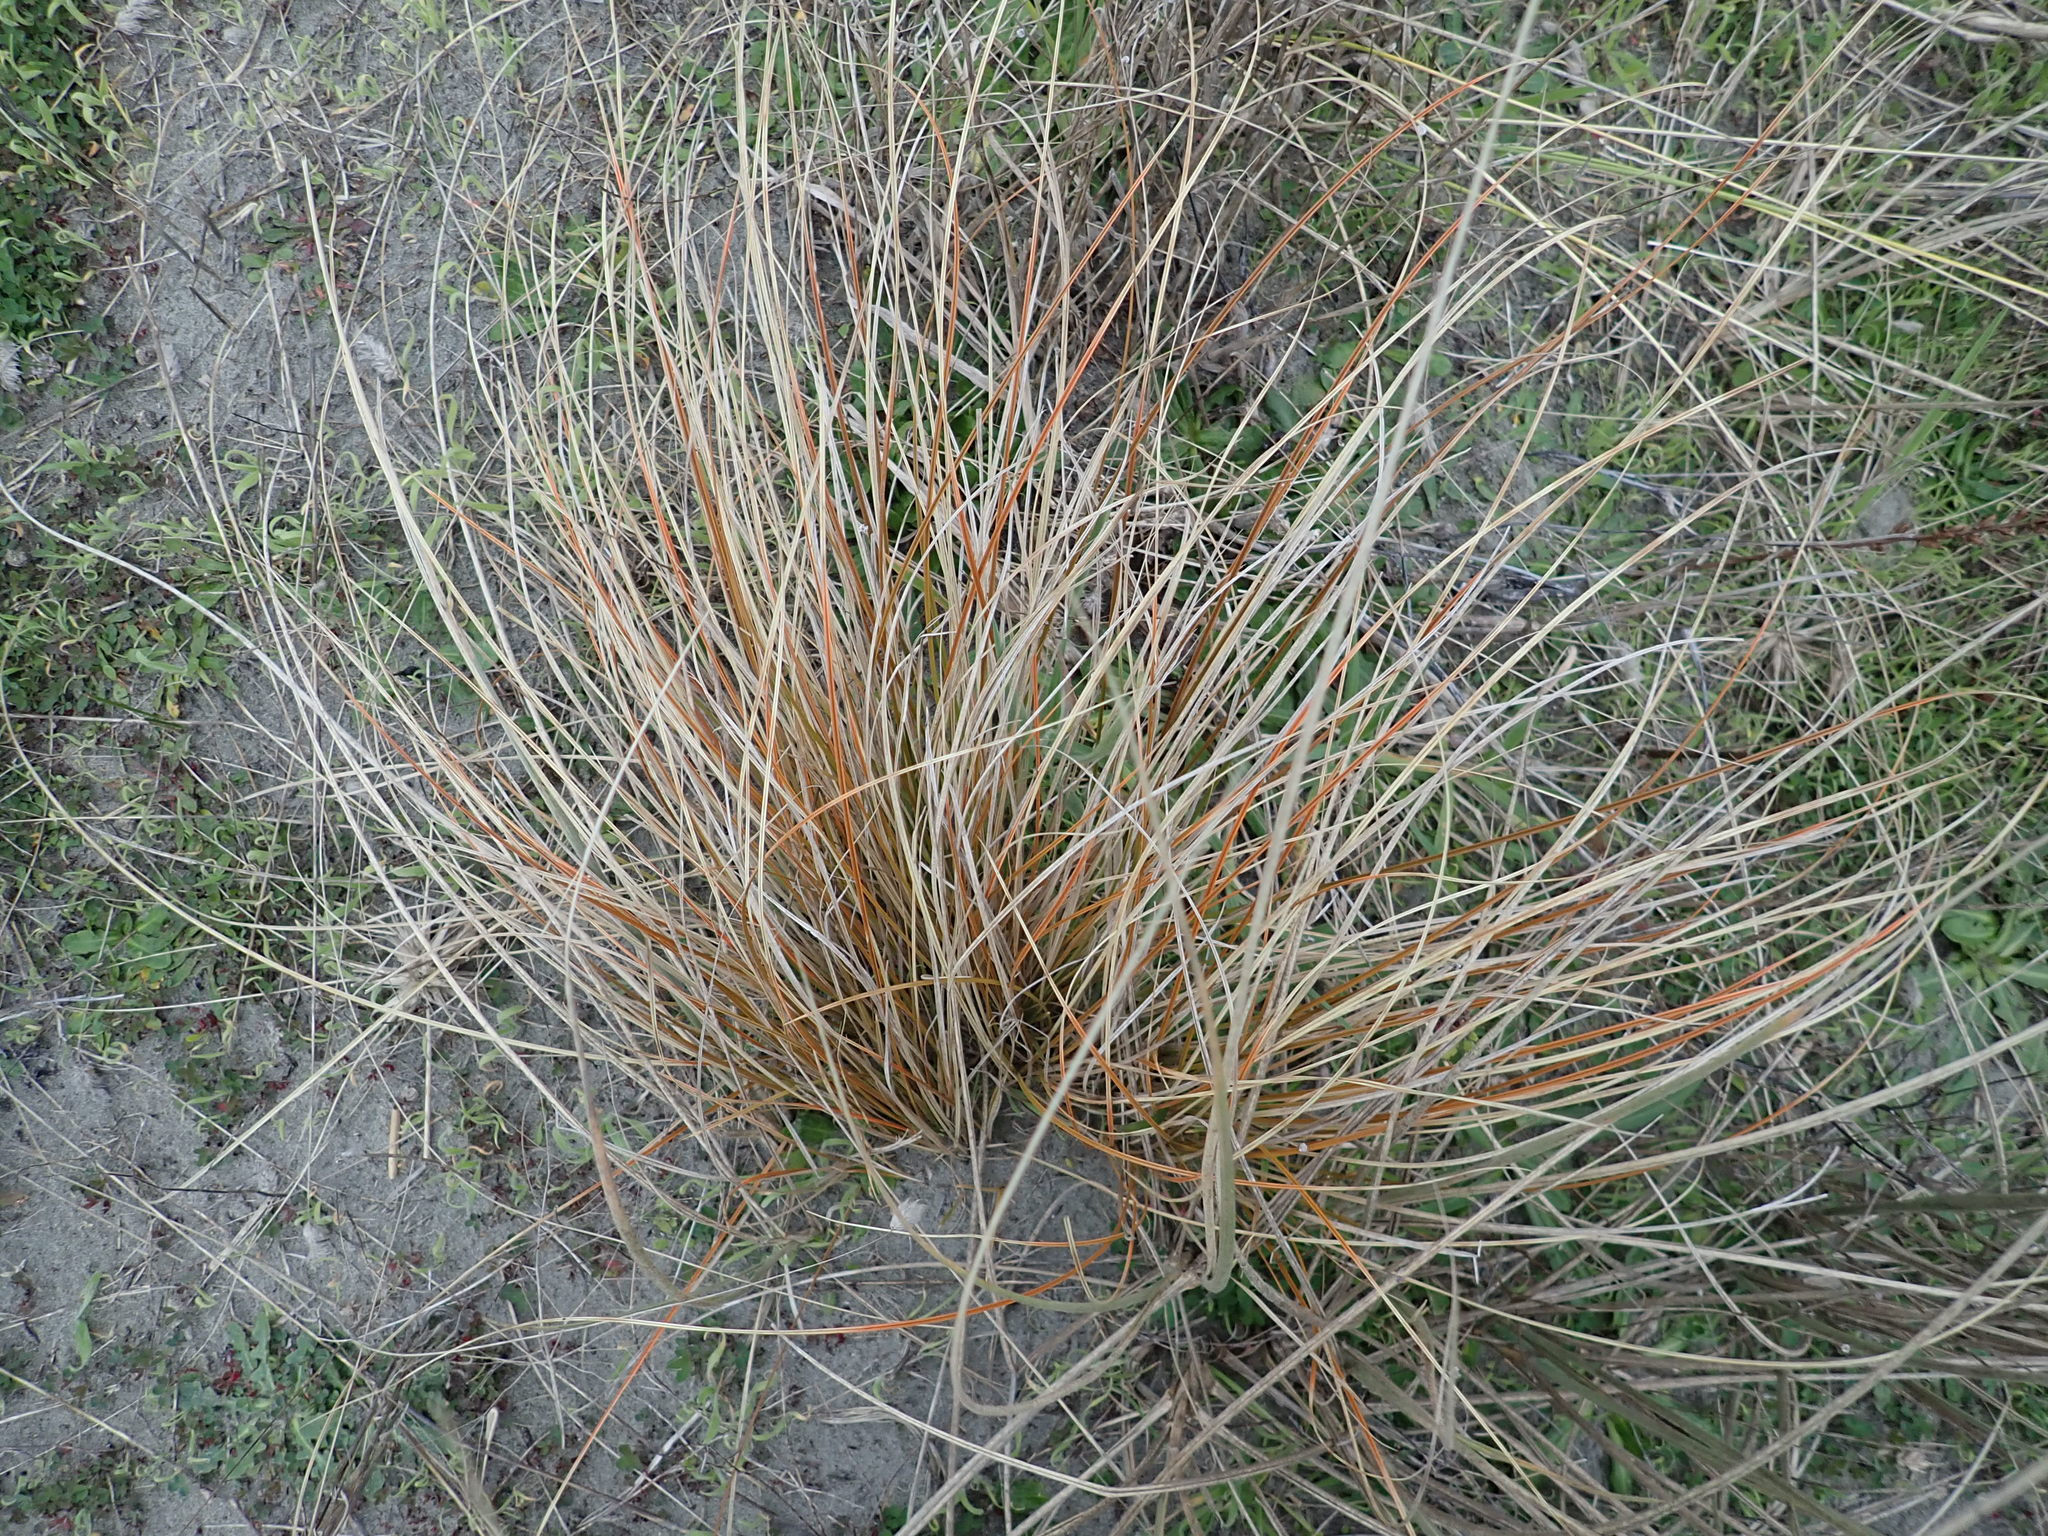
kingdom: Plantae
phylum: Tracheophyta
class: Liliopsida
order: Poales
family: Cyperaceae
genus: Carex
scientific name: Carex testacea
